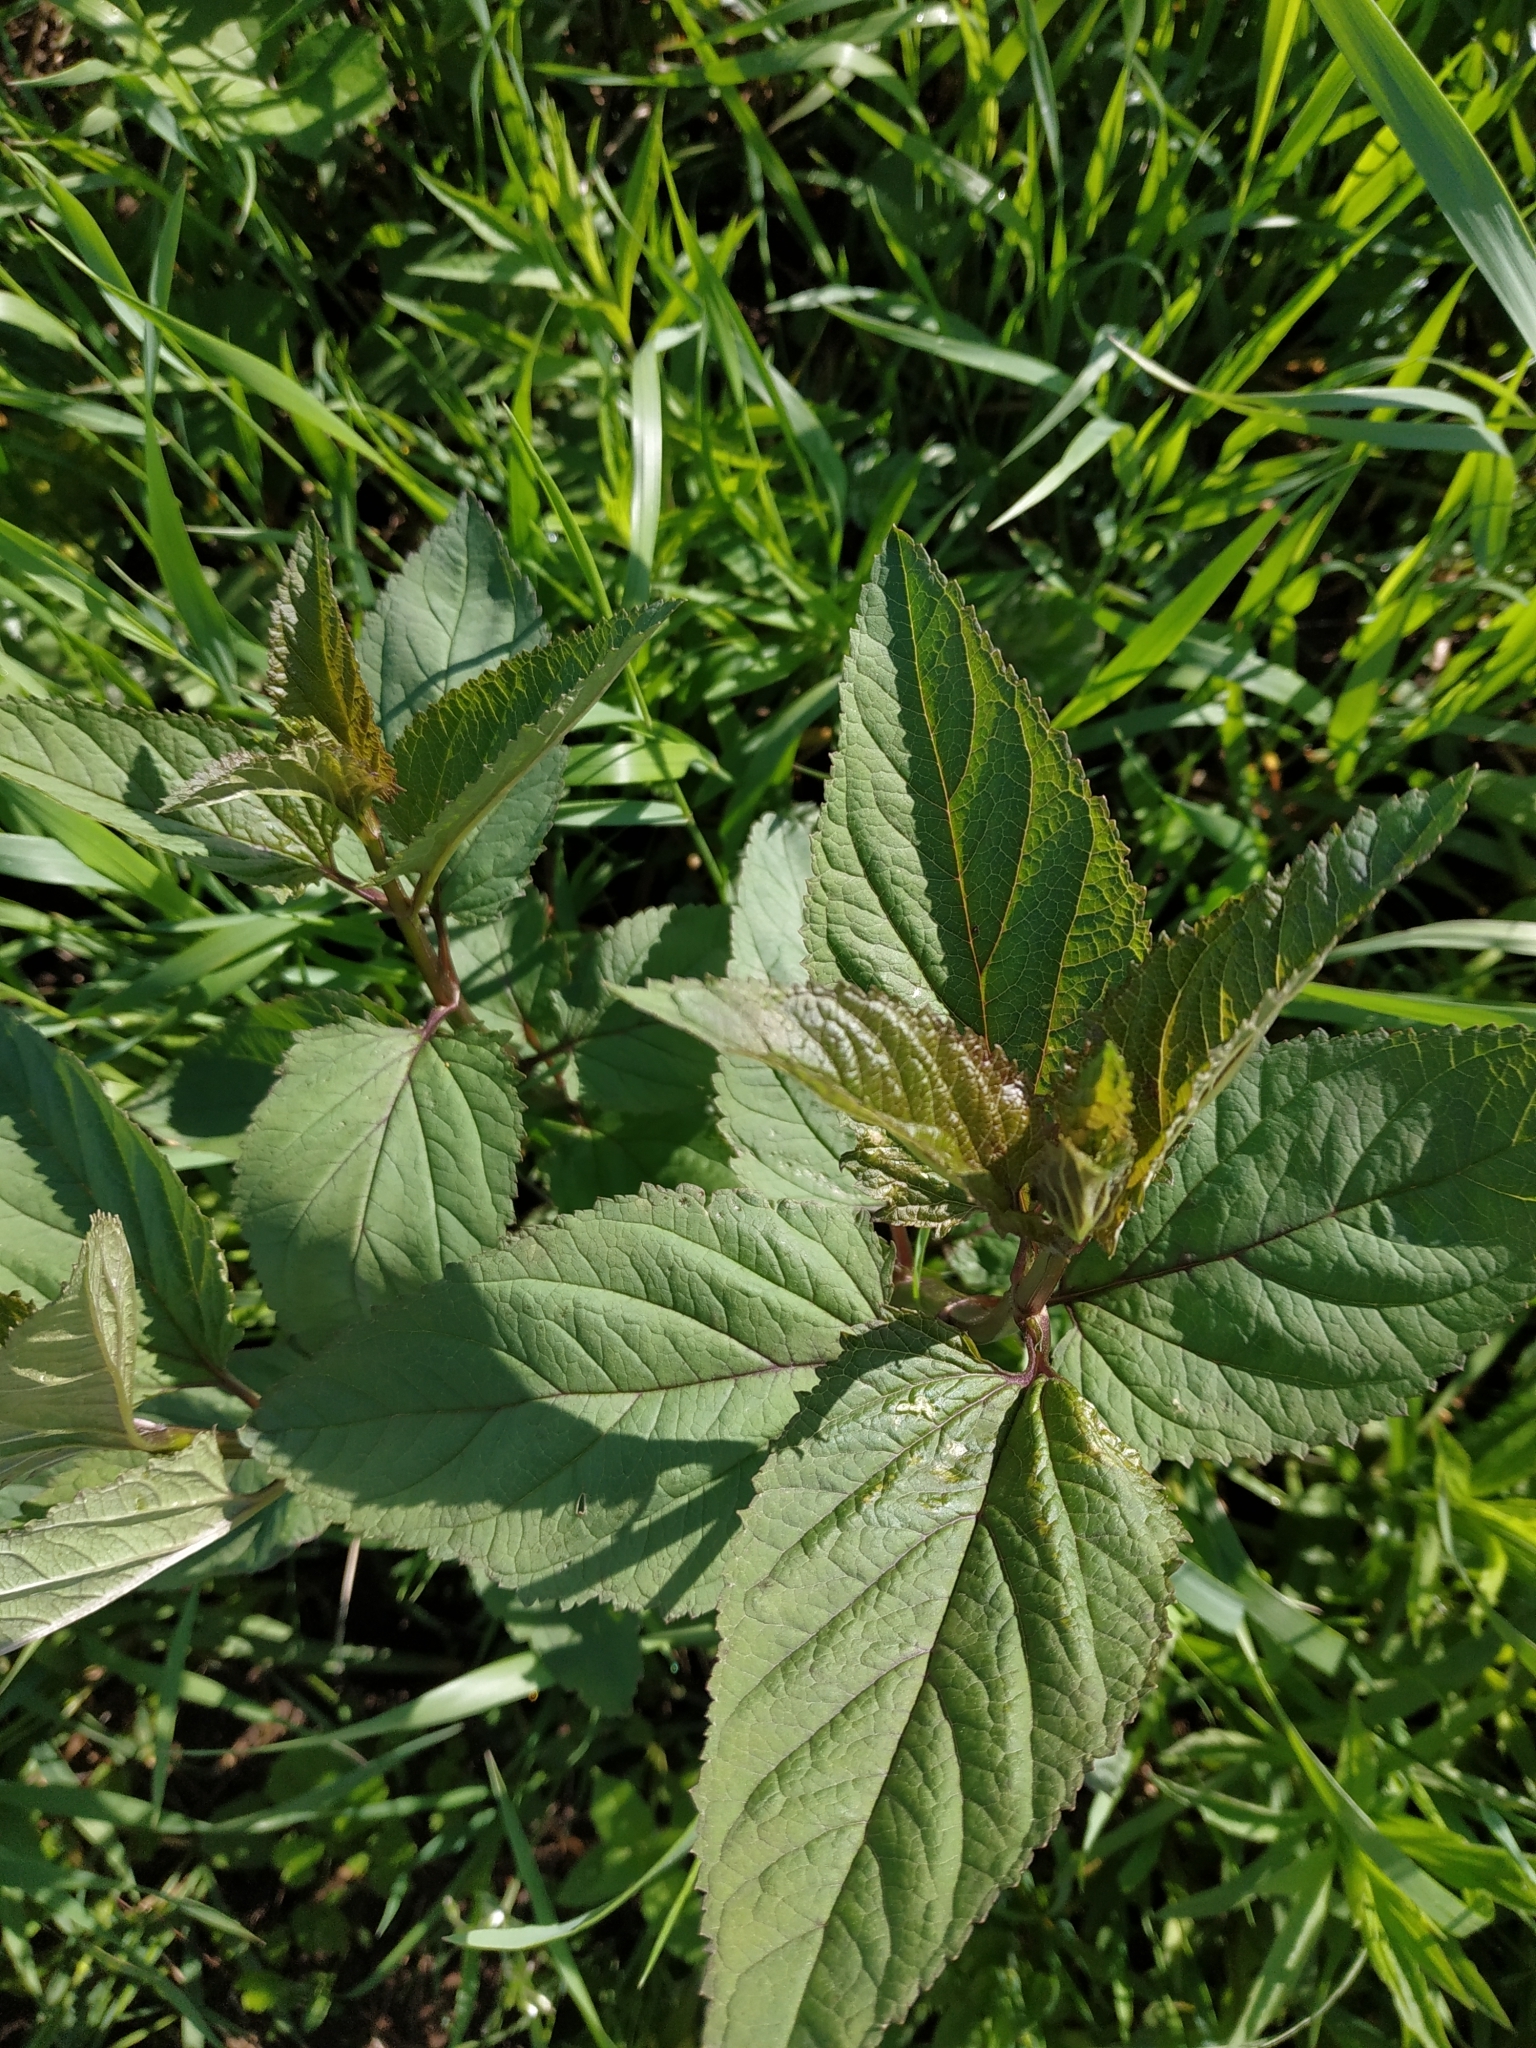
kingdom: Plantae
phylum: Tracheophyta
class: Magnoliopsida
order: Lamiales
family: Scrophulariaceae
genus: Scrophularia
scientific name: Scrophularia nodosa
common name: Common figwort
